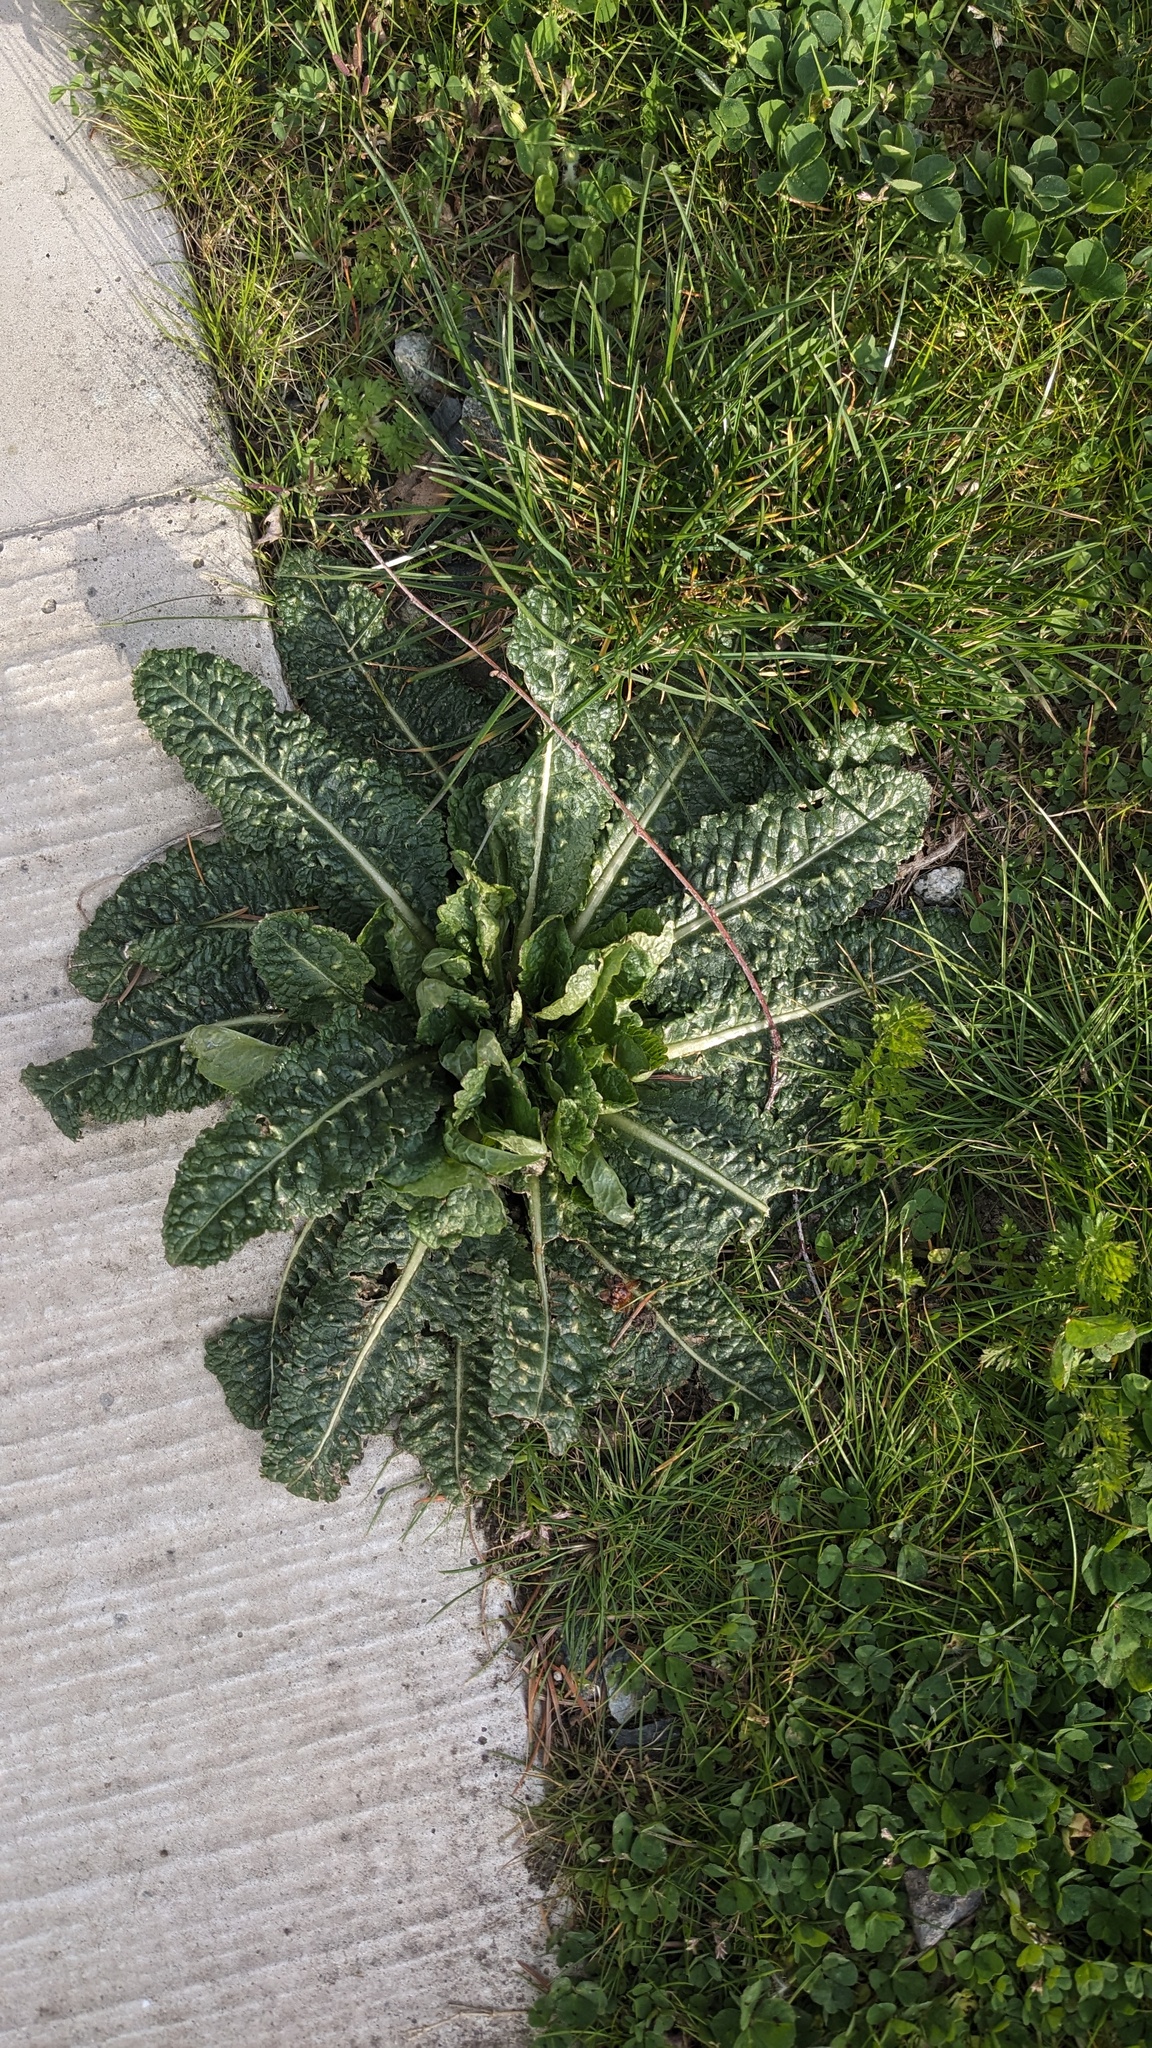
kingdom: Plantae
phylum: Tracheophyta
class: Magnoliopsida
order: Dipsacales
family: Caprifoliaceae
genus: Dipsacus
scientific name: Dipsacus fullonum
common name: Teasel
